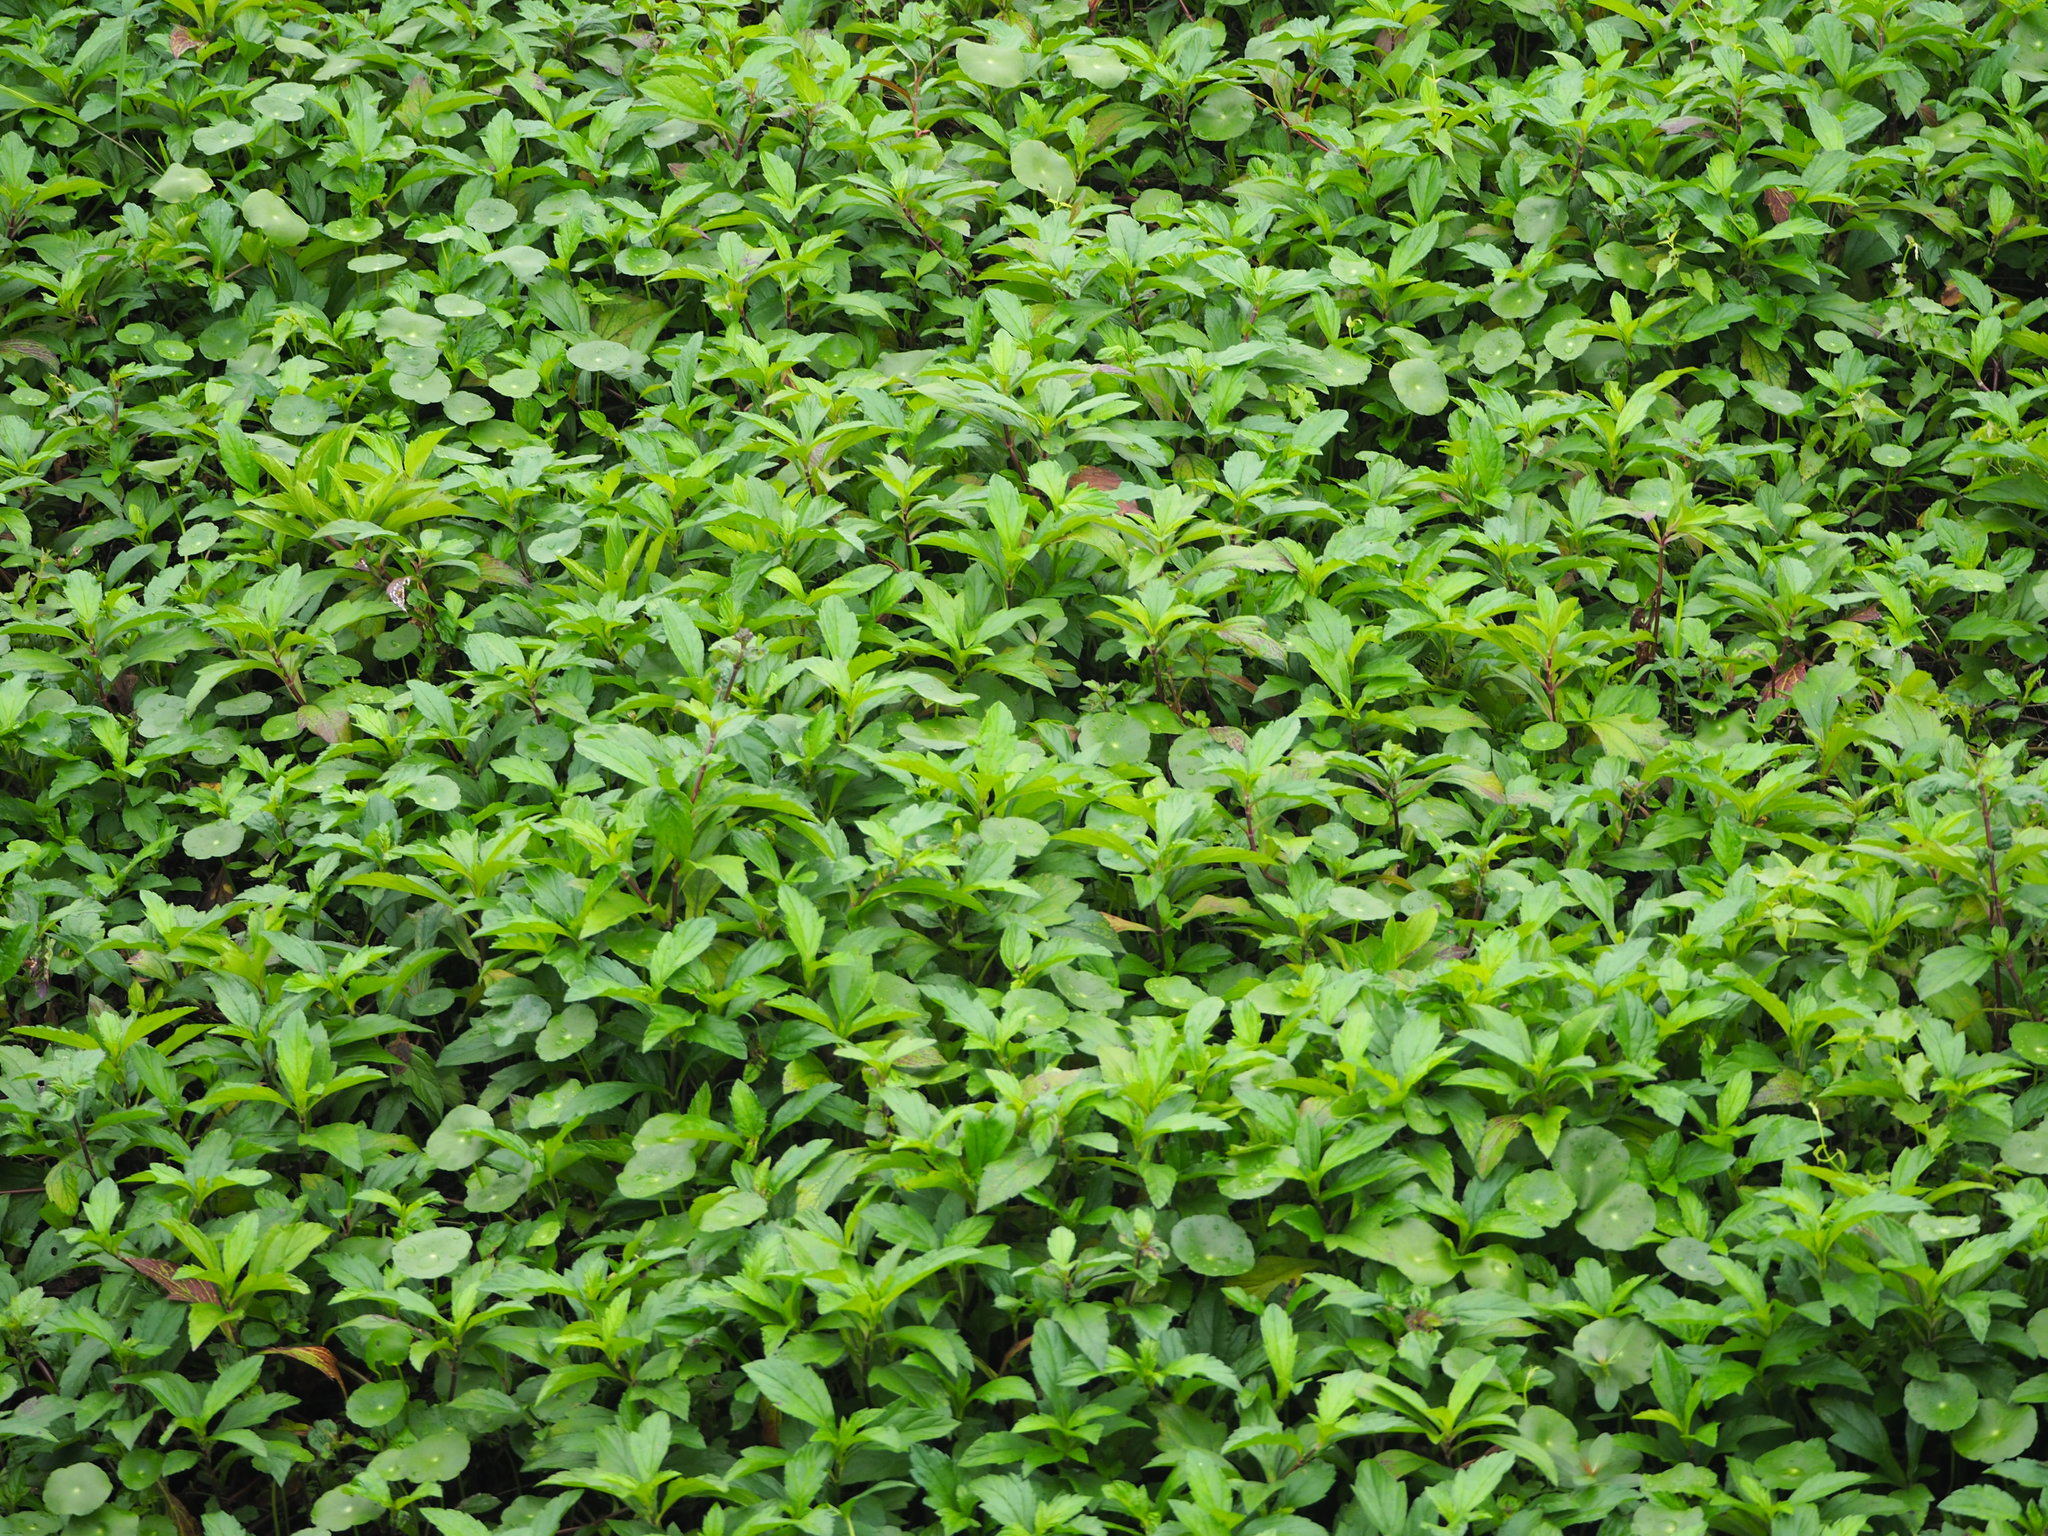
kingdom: Plantae
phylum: Tracheophyta
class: Magnoliopsida
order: Asterales
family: Asteraceae
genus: Sphagneticola
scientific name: Sphagneticola trilobata
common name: Bay biscayne creeping-oxeye
